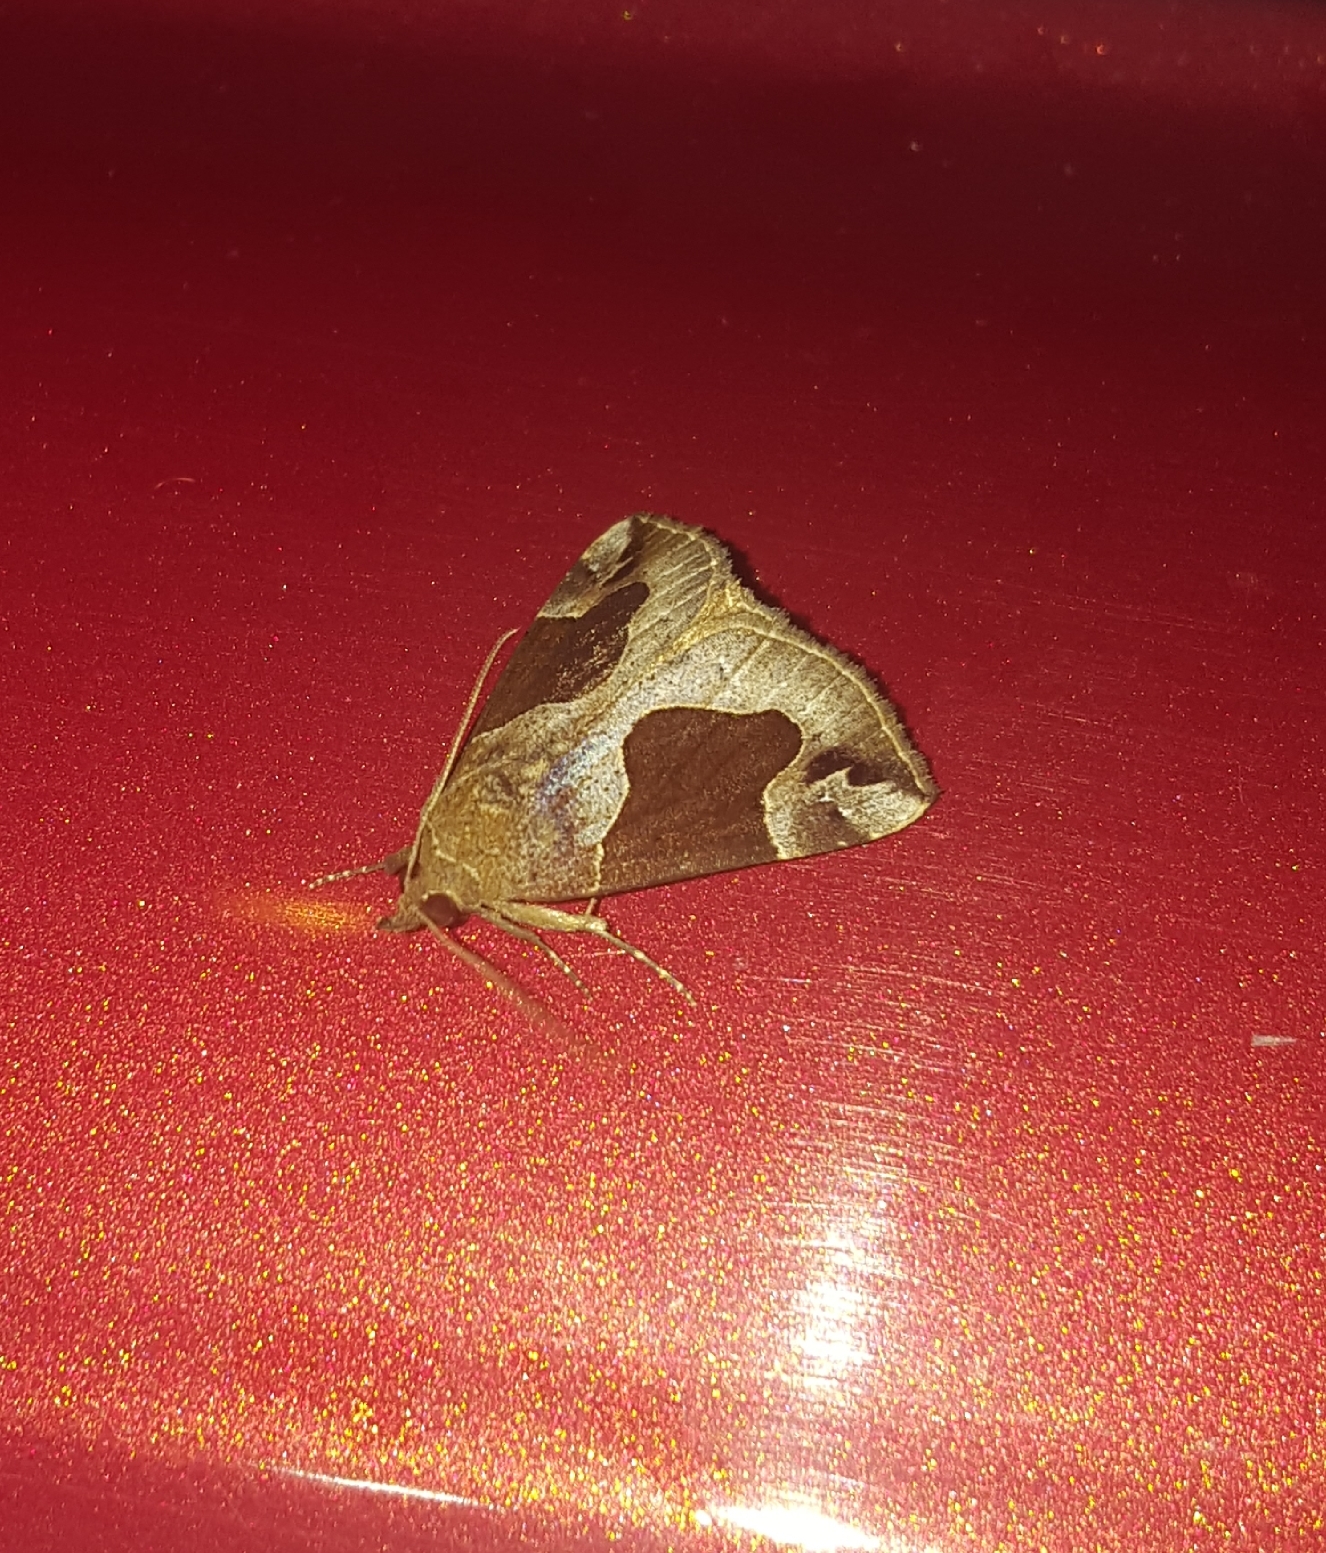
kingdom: Animalia
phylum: Arthropoda
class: Insecta
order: Lepidoptera
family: Erebidae
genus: Hypena
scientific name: Hypena manalis
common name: Flowing-line bomolocha moth
